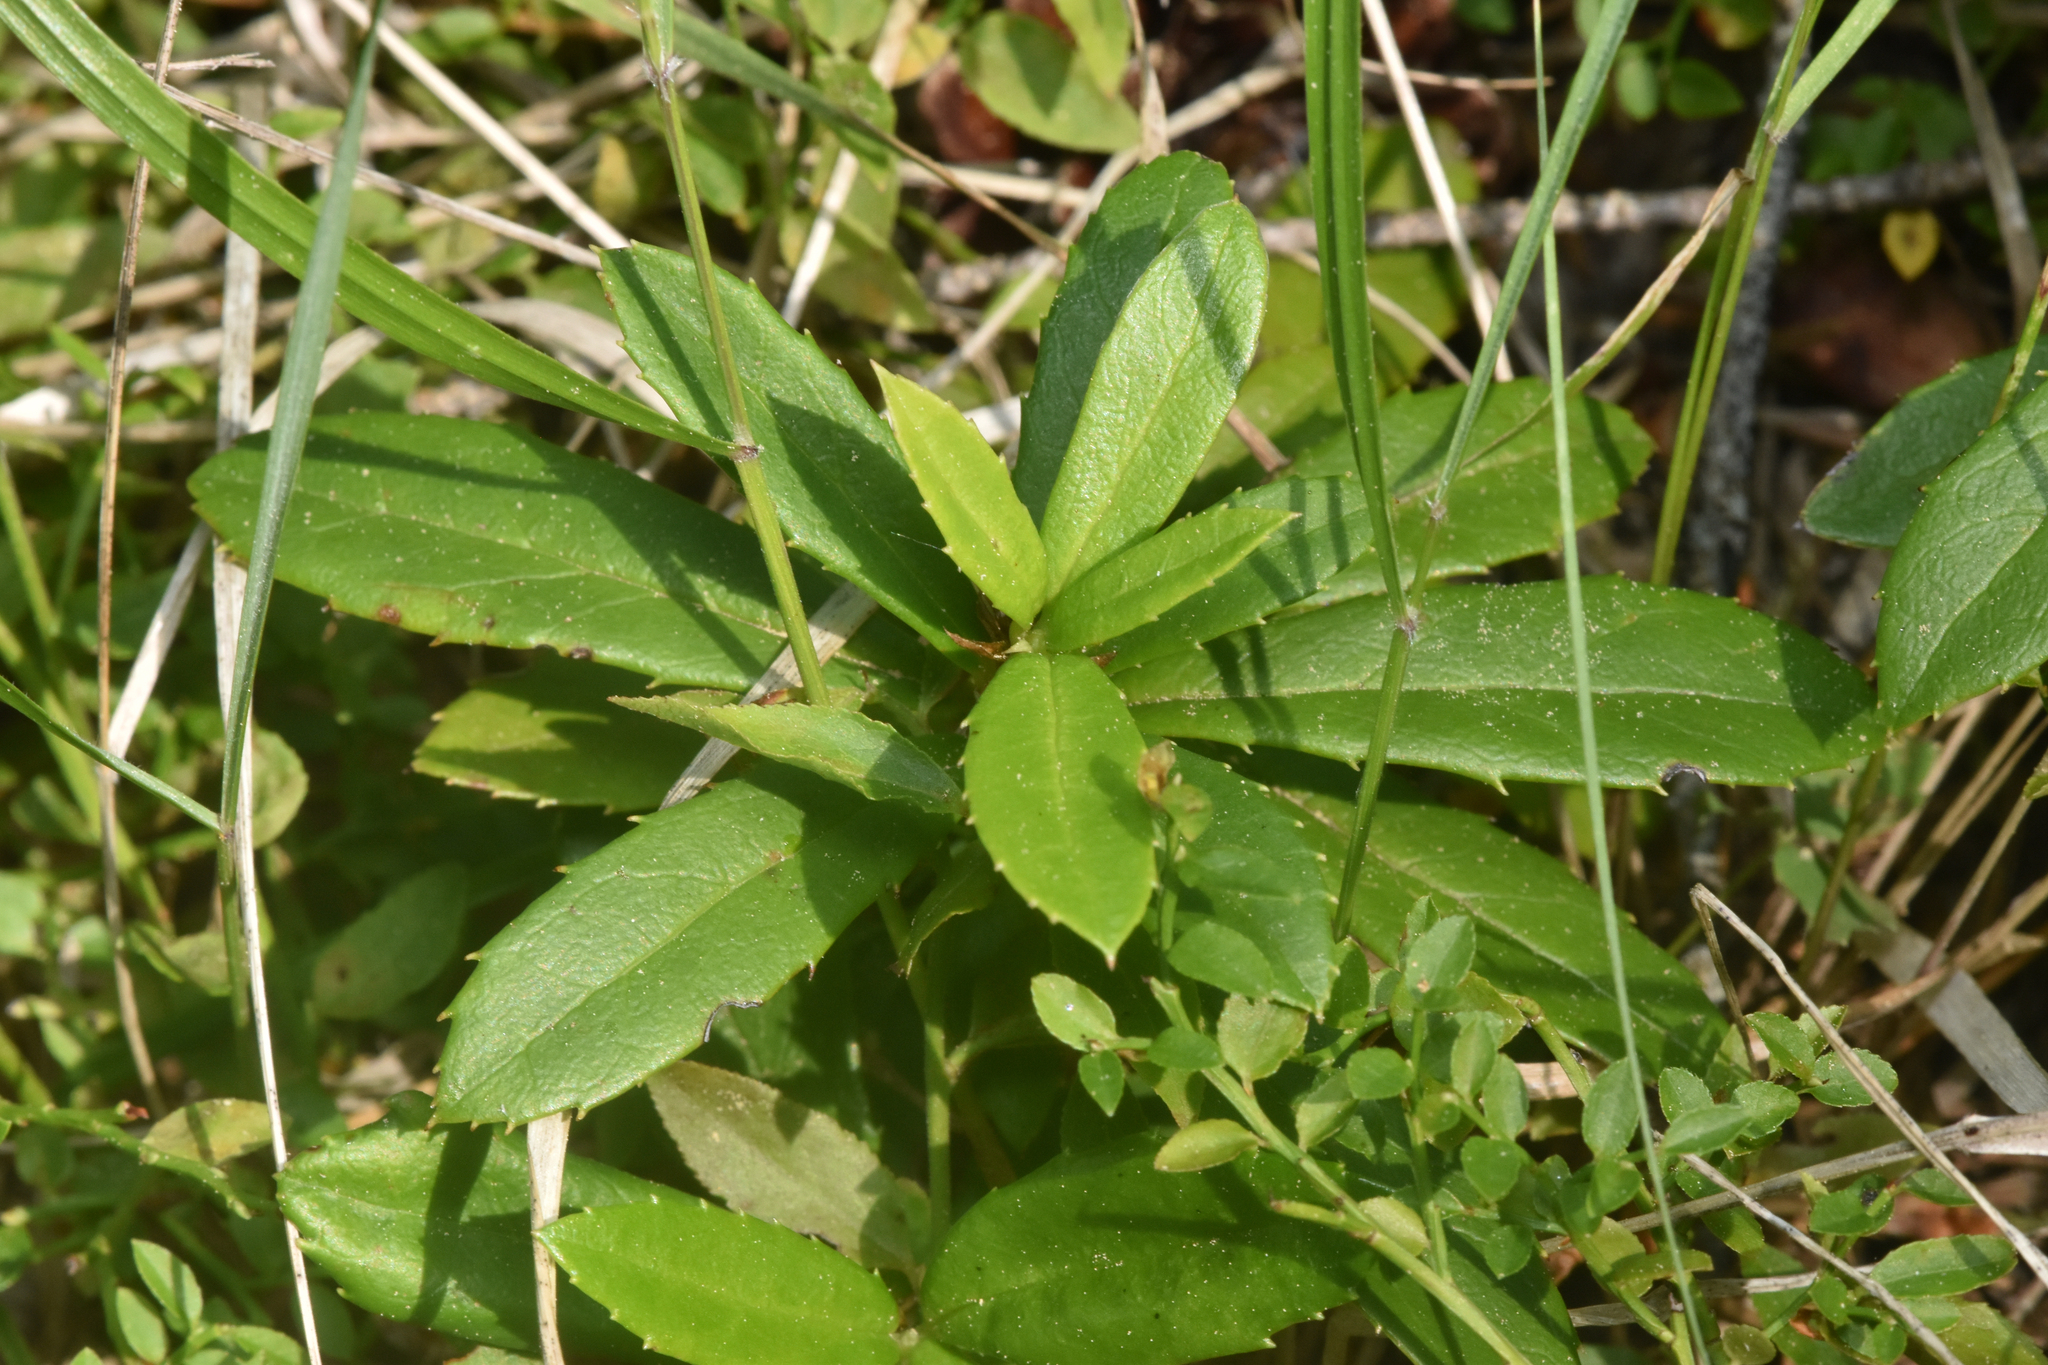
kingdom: Plantae
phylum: Tracheophyta
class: Magnoliopsida
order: Ericales
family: Ericaceae
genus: Chimaphila
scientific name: Chimaphila umbellata
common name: Pipsissewa
